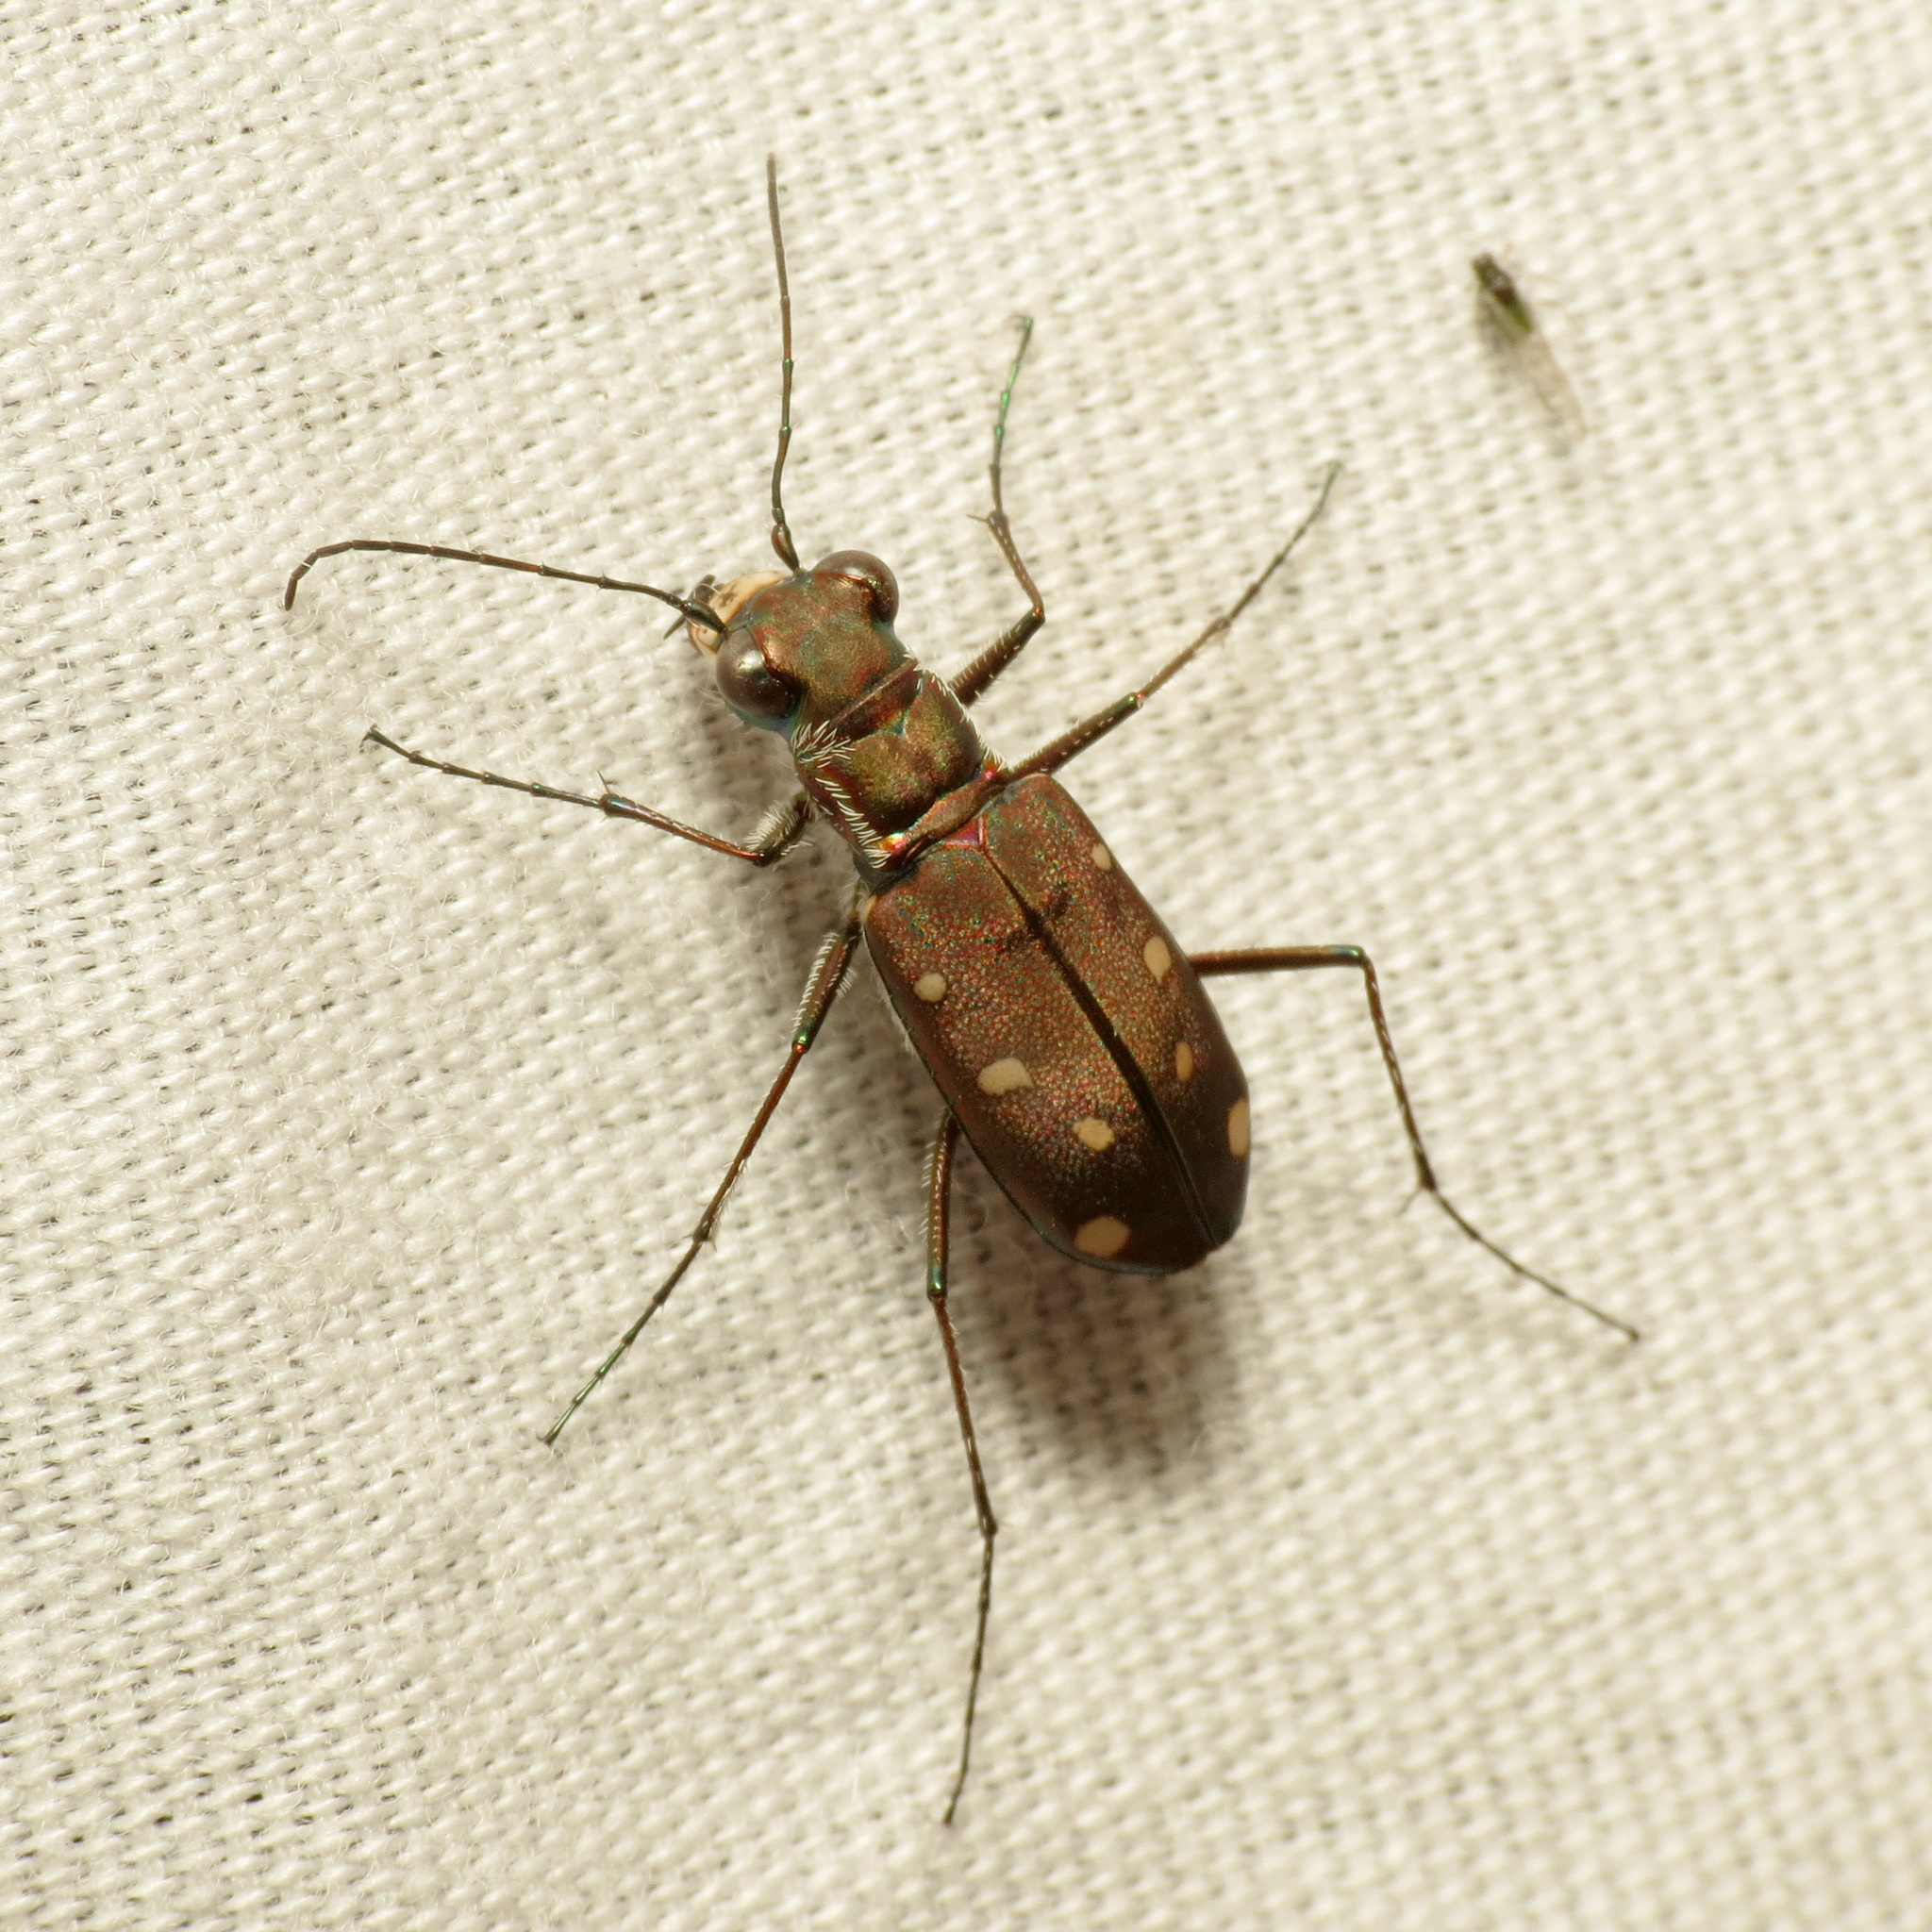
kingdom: Animalia
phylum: Arthropoda
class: Insecta
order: Coleoptera
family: Carabidae
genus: Cicindela
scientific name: Cicindela ocellata
